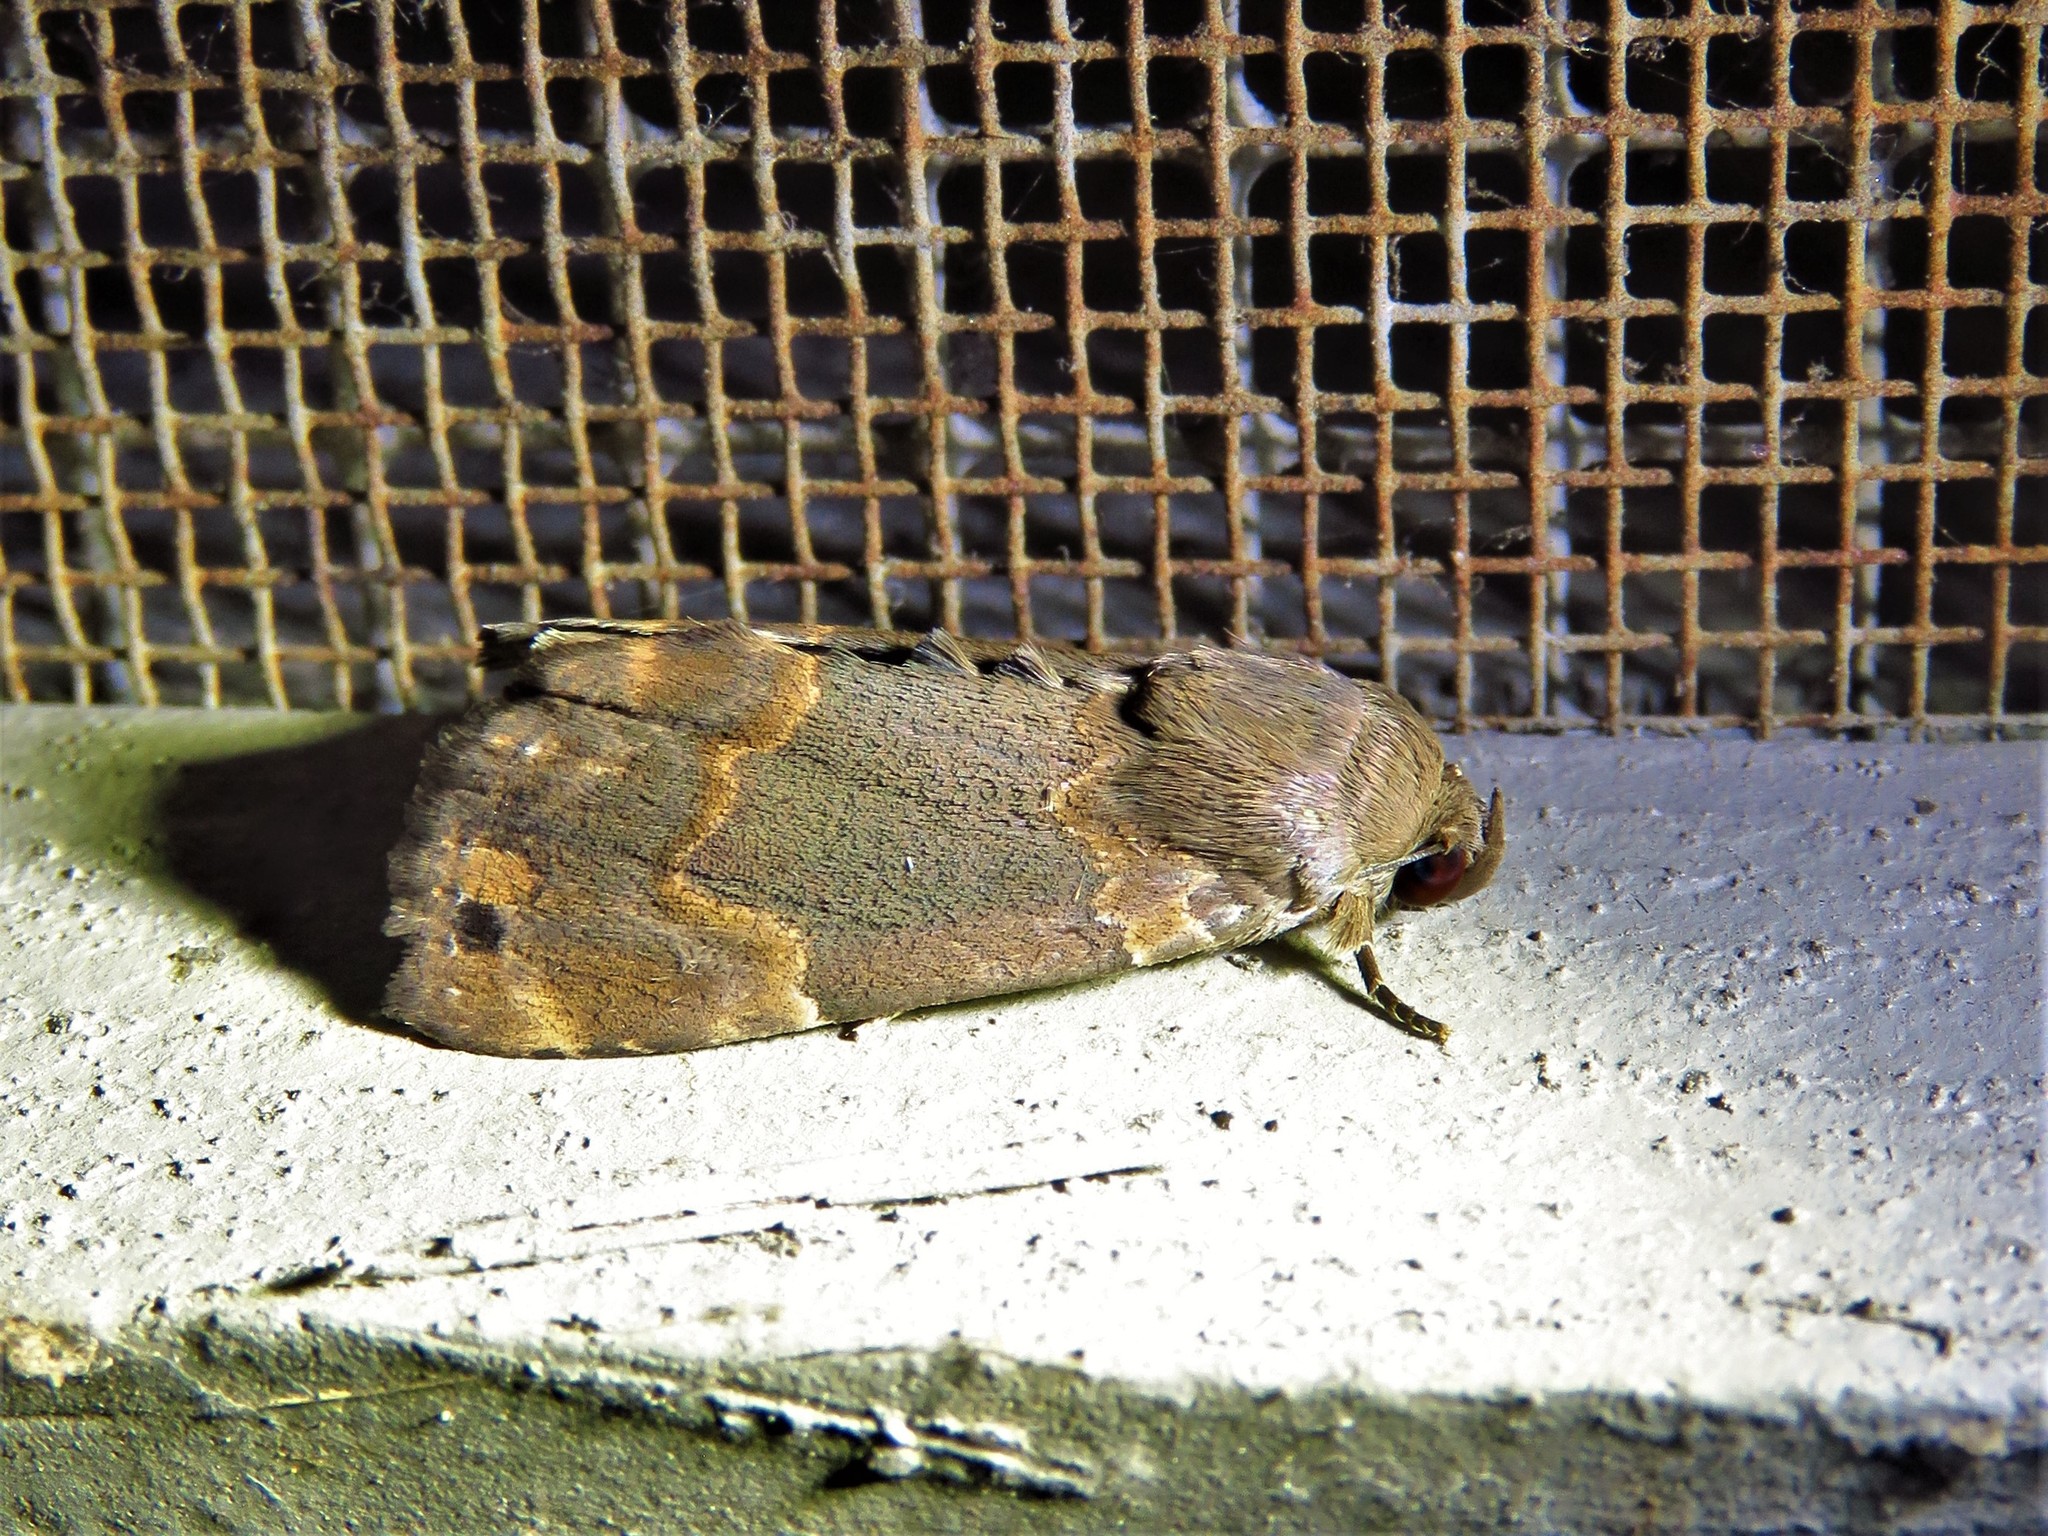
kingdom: Animalia
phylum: Arthropoda
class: Insecta
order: Lepidoptera
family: Erebidae
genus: Dinumma
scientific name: Dinumma deponens
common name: Purplish moth
